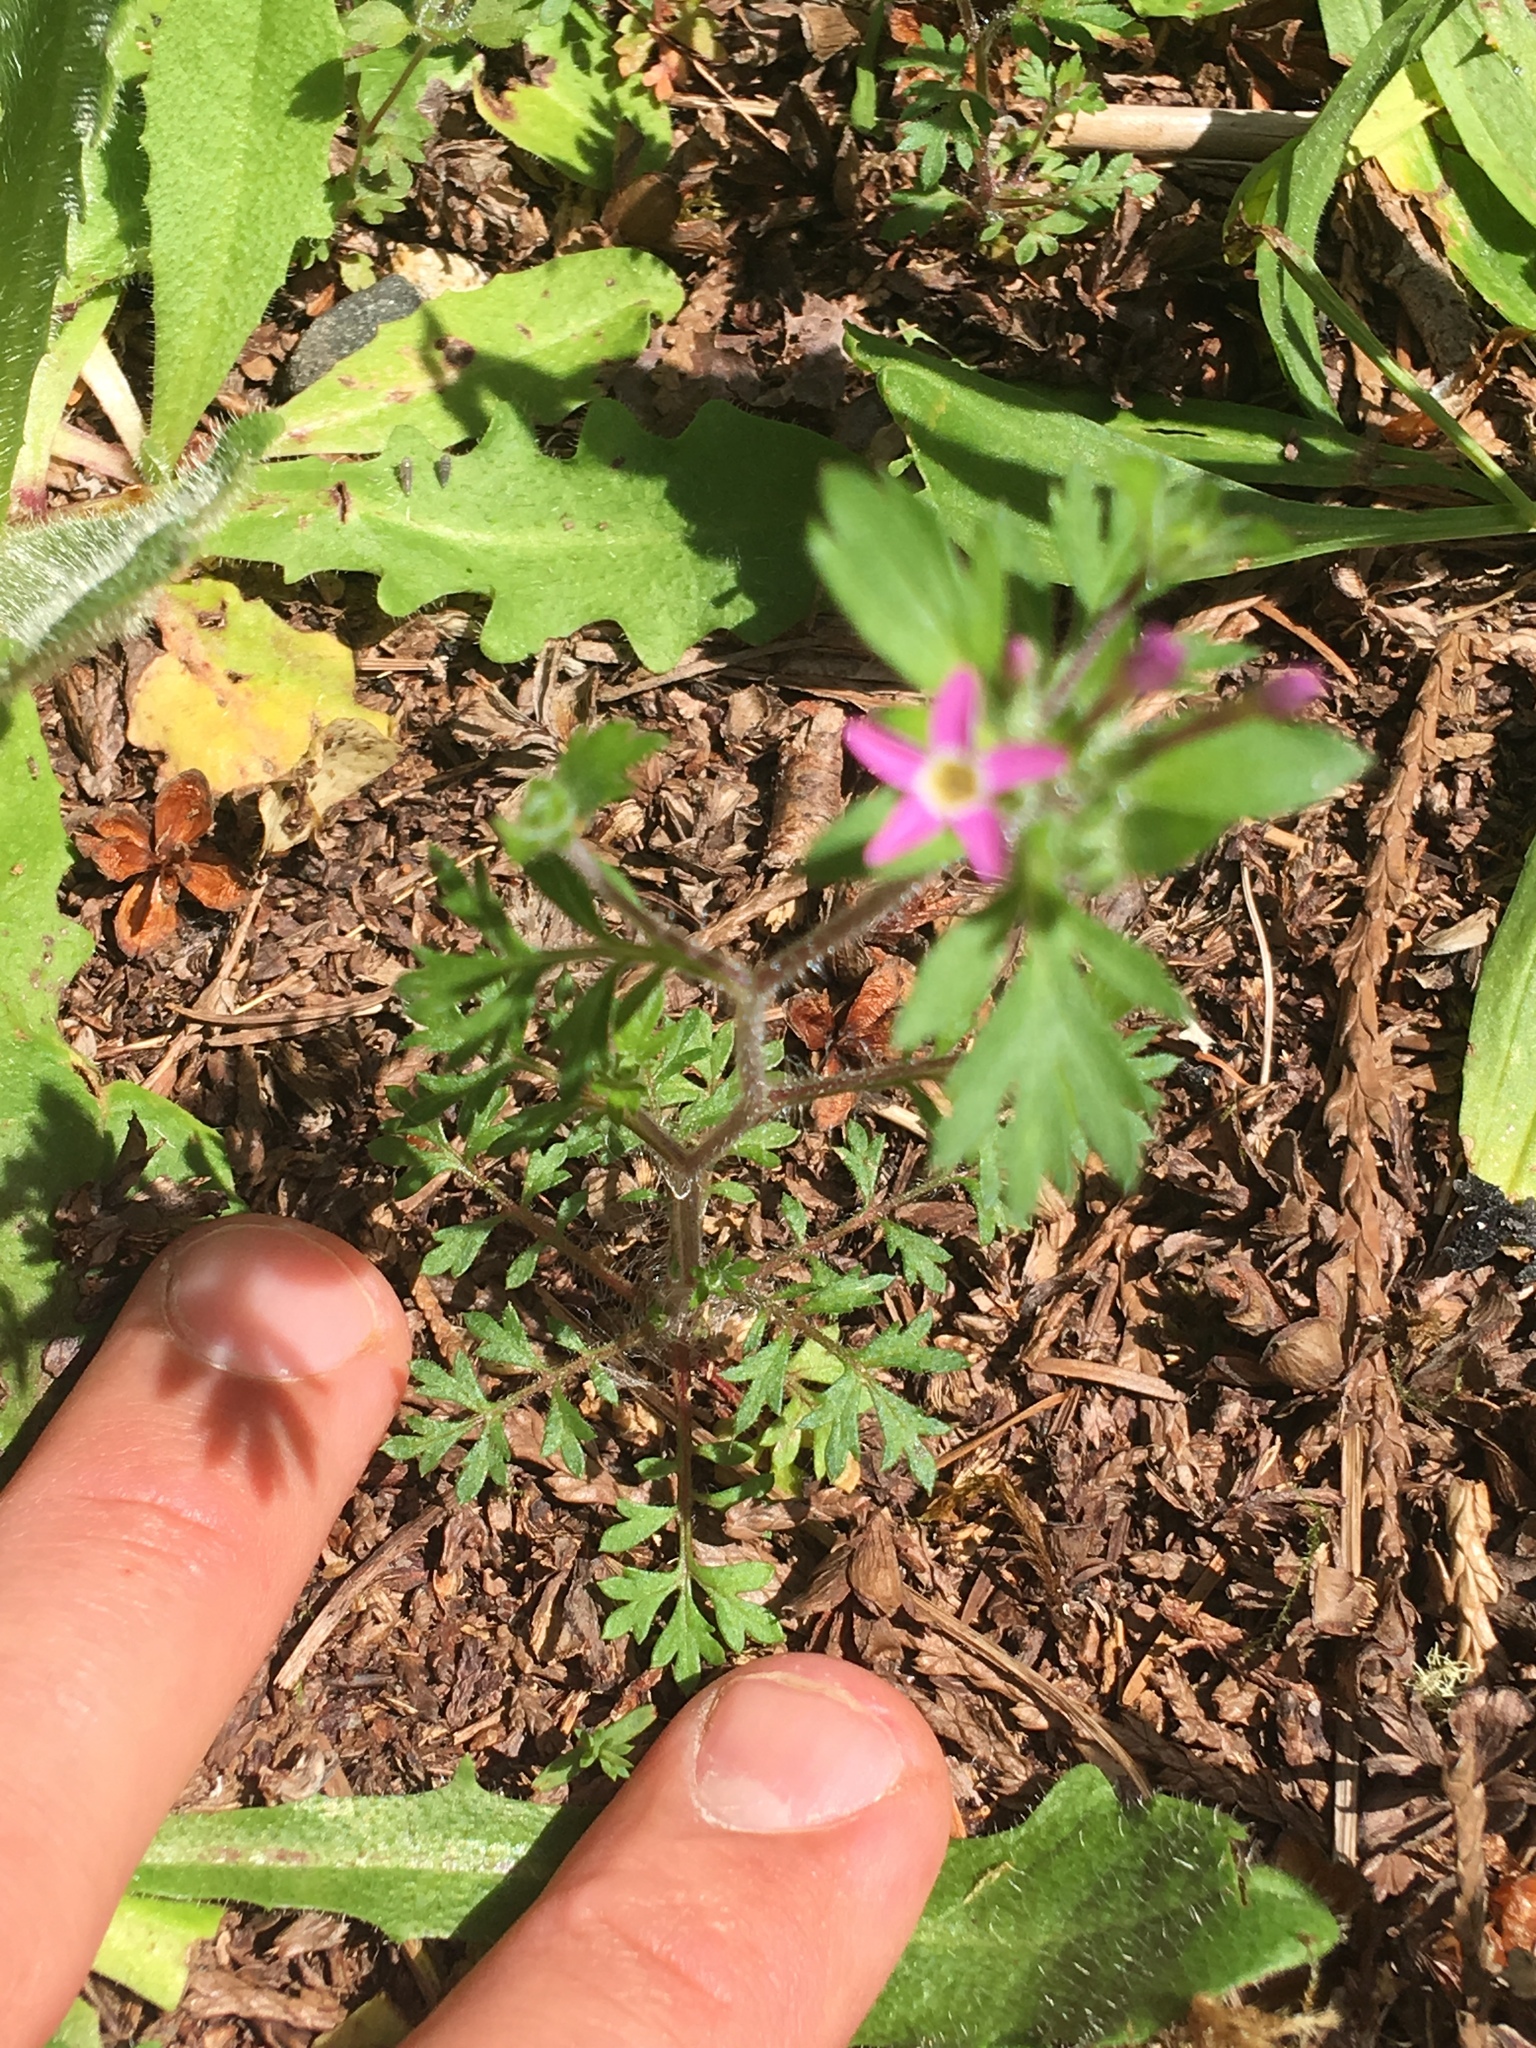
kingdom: Plantae
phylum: Tracheophyta
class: Magnoliopsida
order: Ericales
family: Polemoniaceae
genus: Collomia
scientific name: Collomia heterophylla
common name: Variable-leaved collomia
